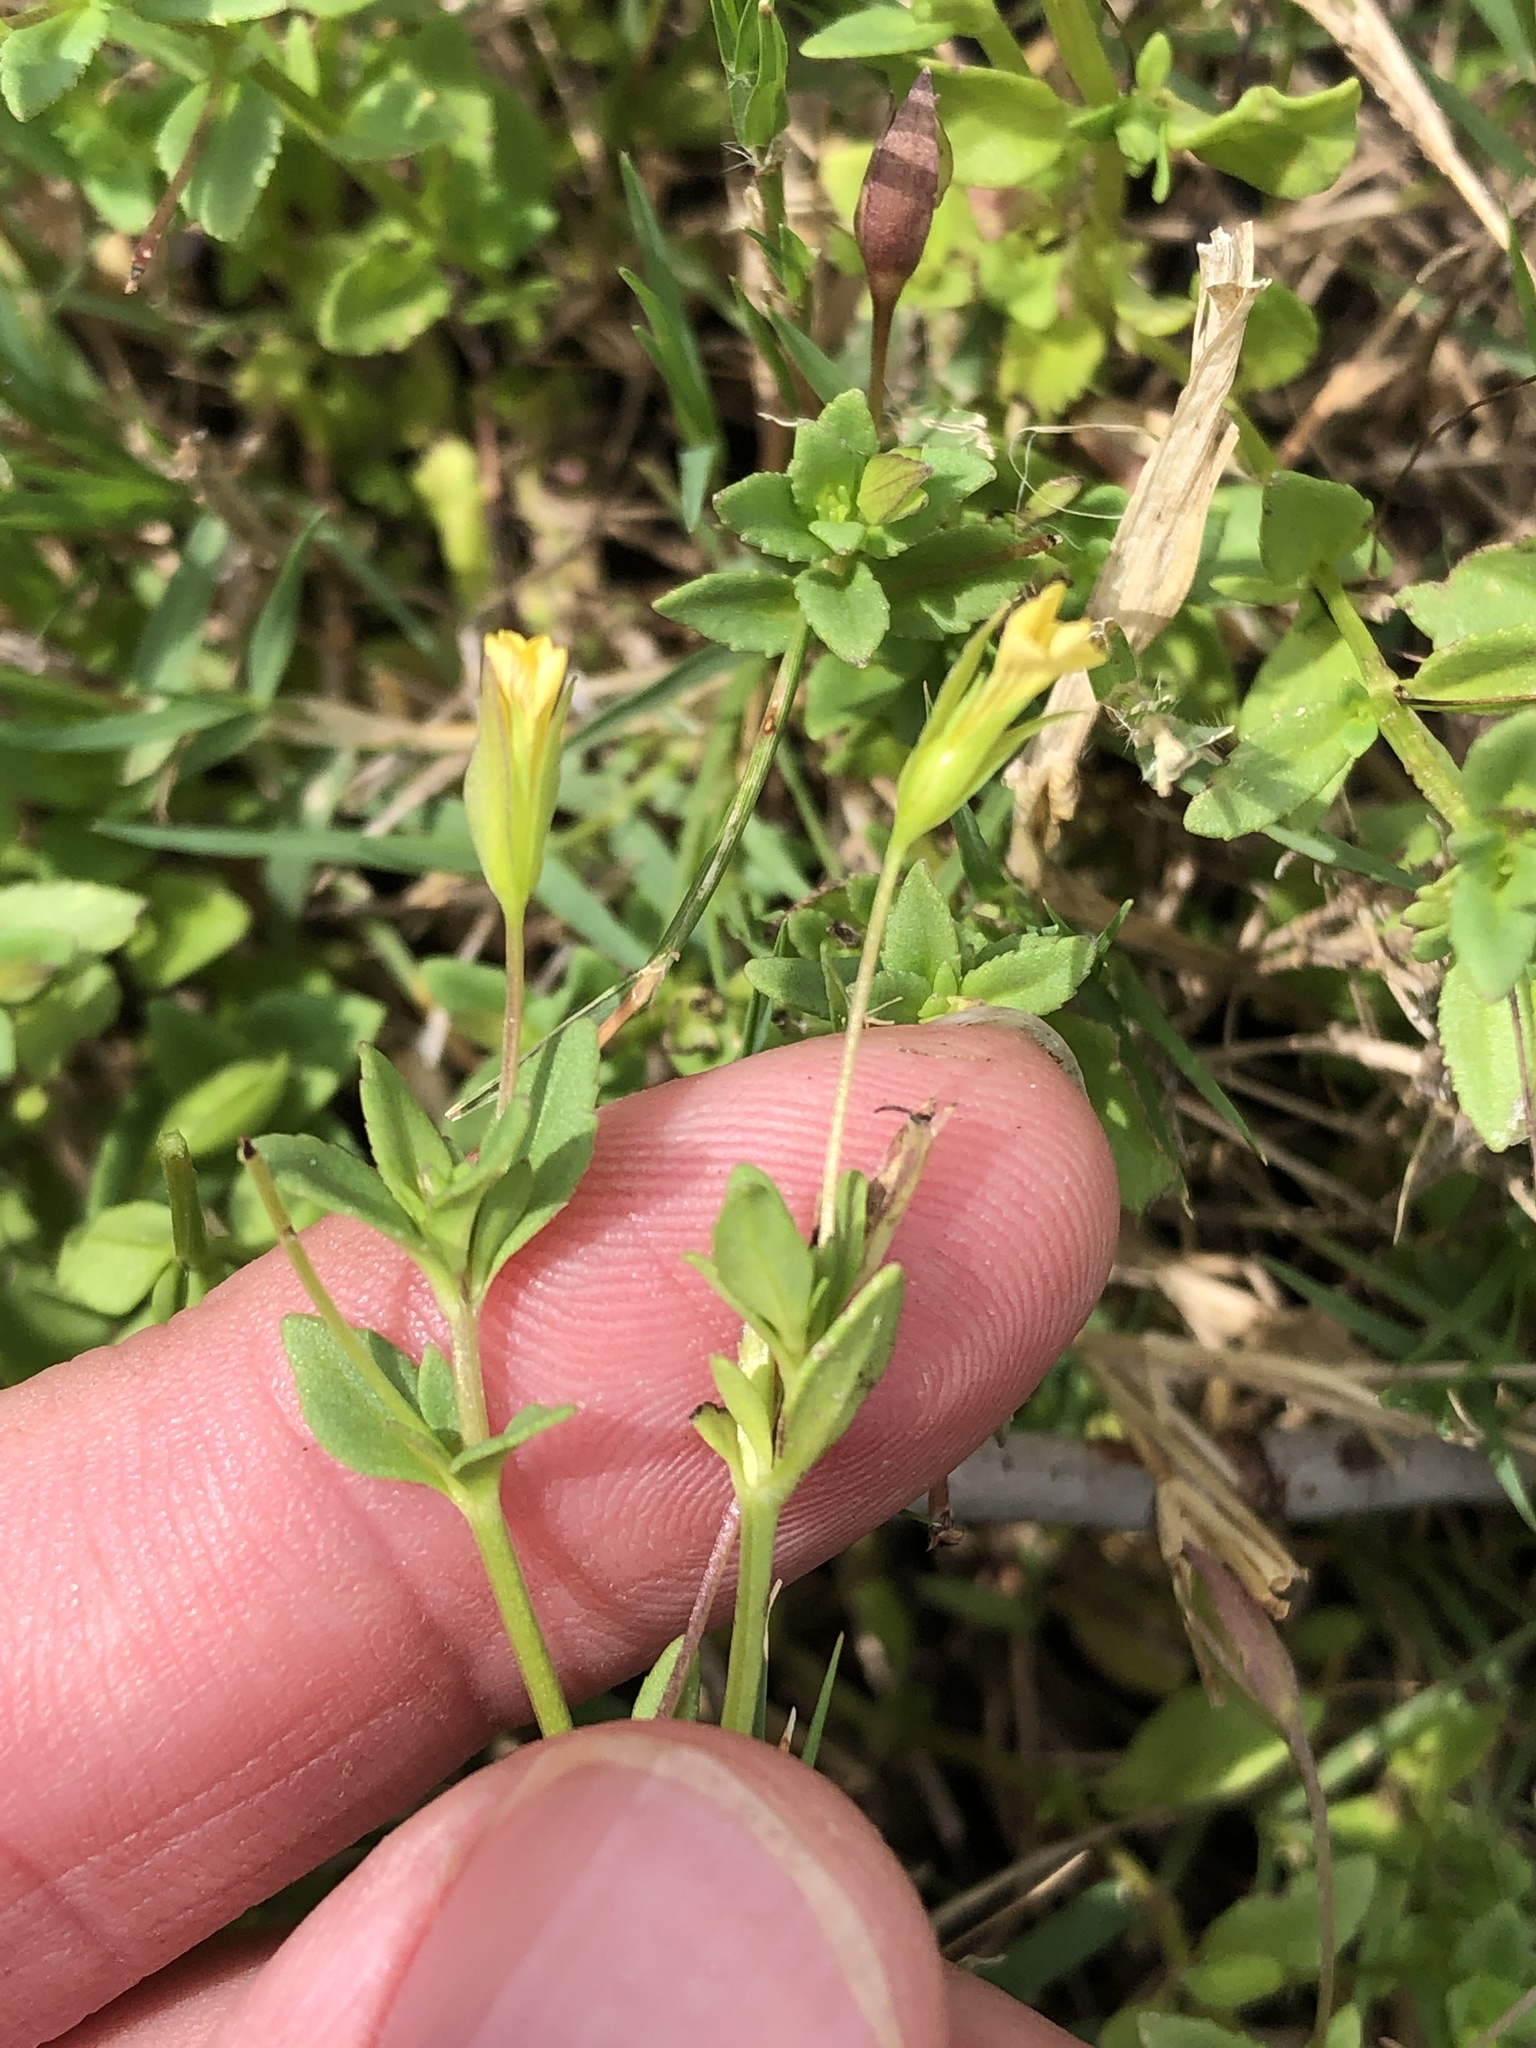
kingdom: Plantae
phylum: Tracheophyta
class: Magnoliopsida
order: Lamiales
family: Plantaginaceae
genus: Mecardonia
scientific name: Mecardonia procumbens
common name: Baby jump-up
